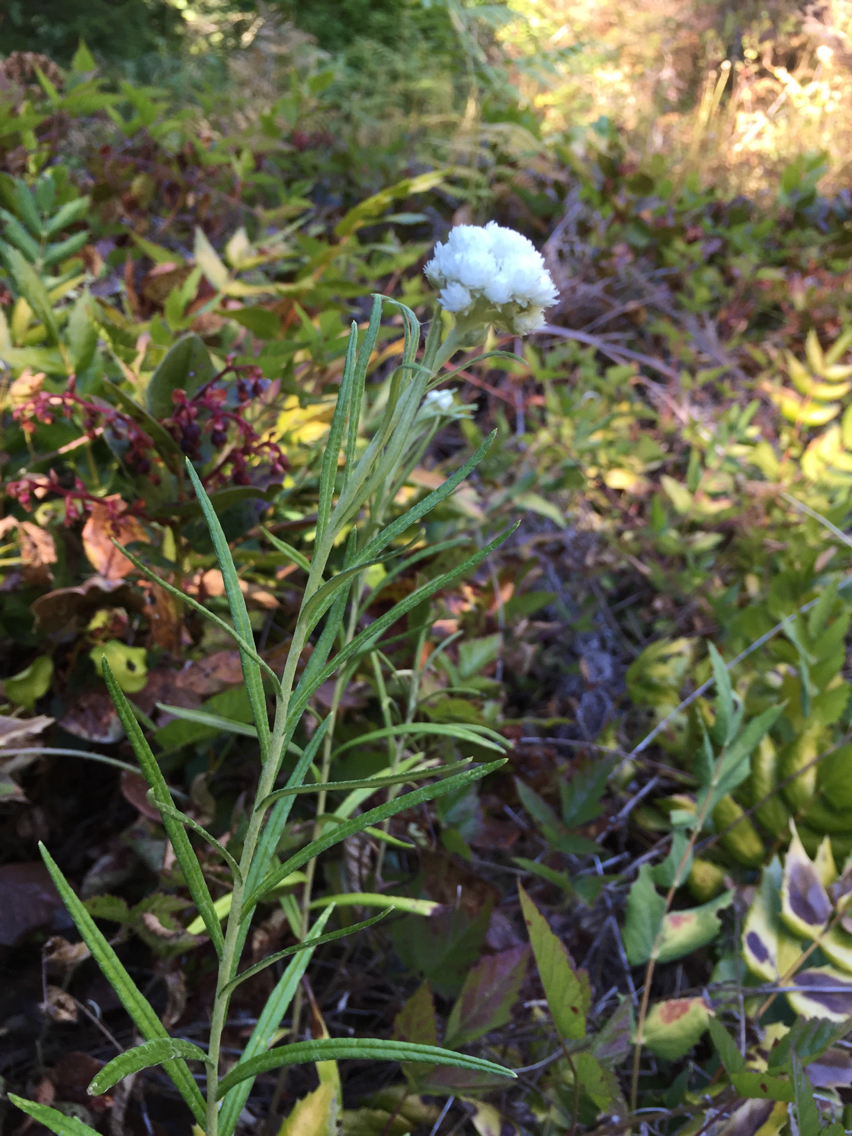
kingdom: Plantae
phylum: Tracheophyta
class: Magnoliopsida
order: Asterales
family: Asteraceae
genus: Anaphalis
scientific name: Anaphalis margaritacea
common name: Pearly everlasting
